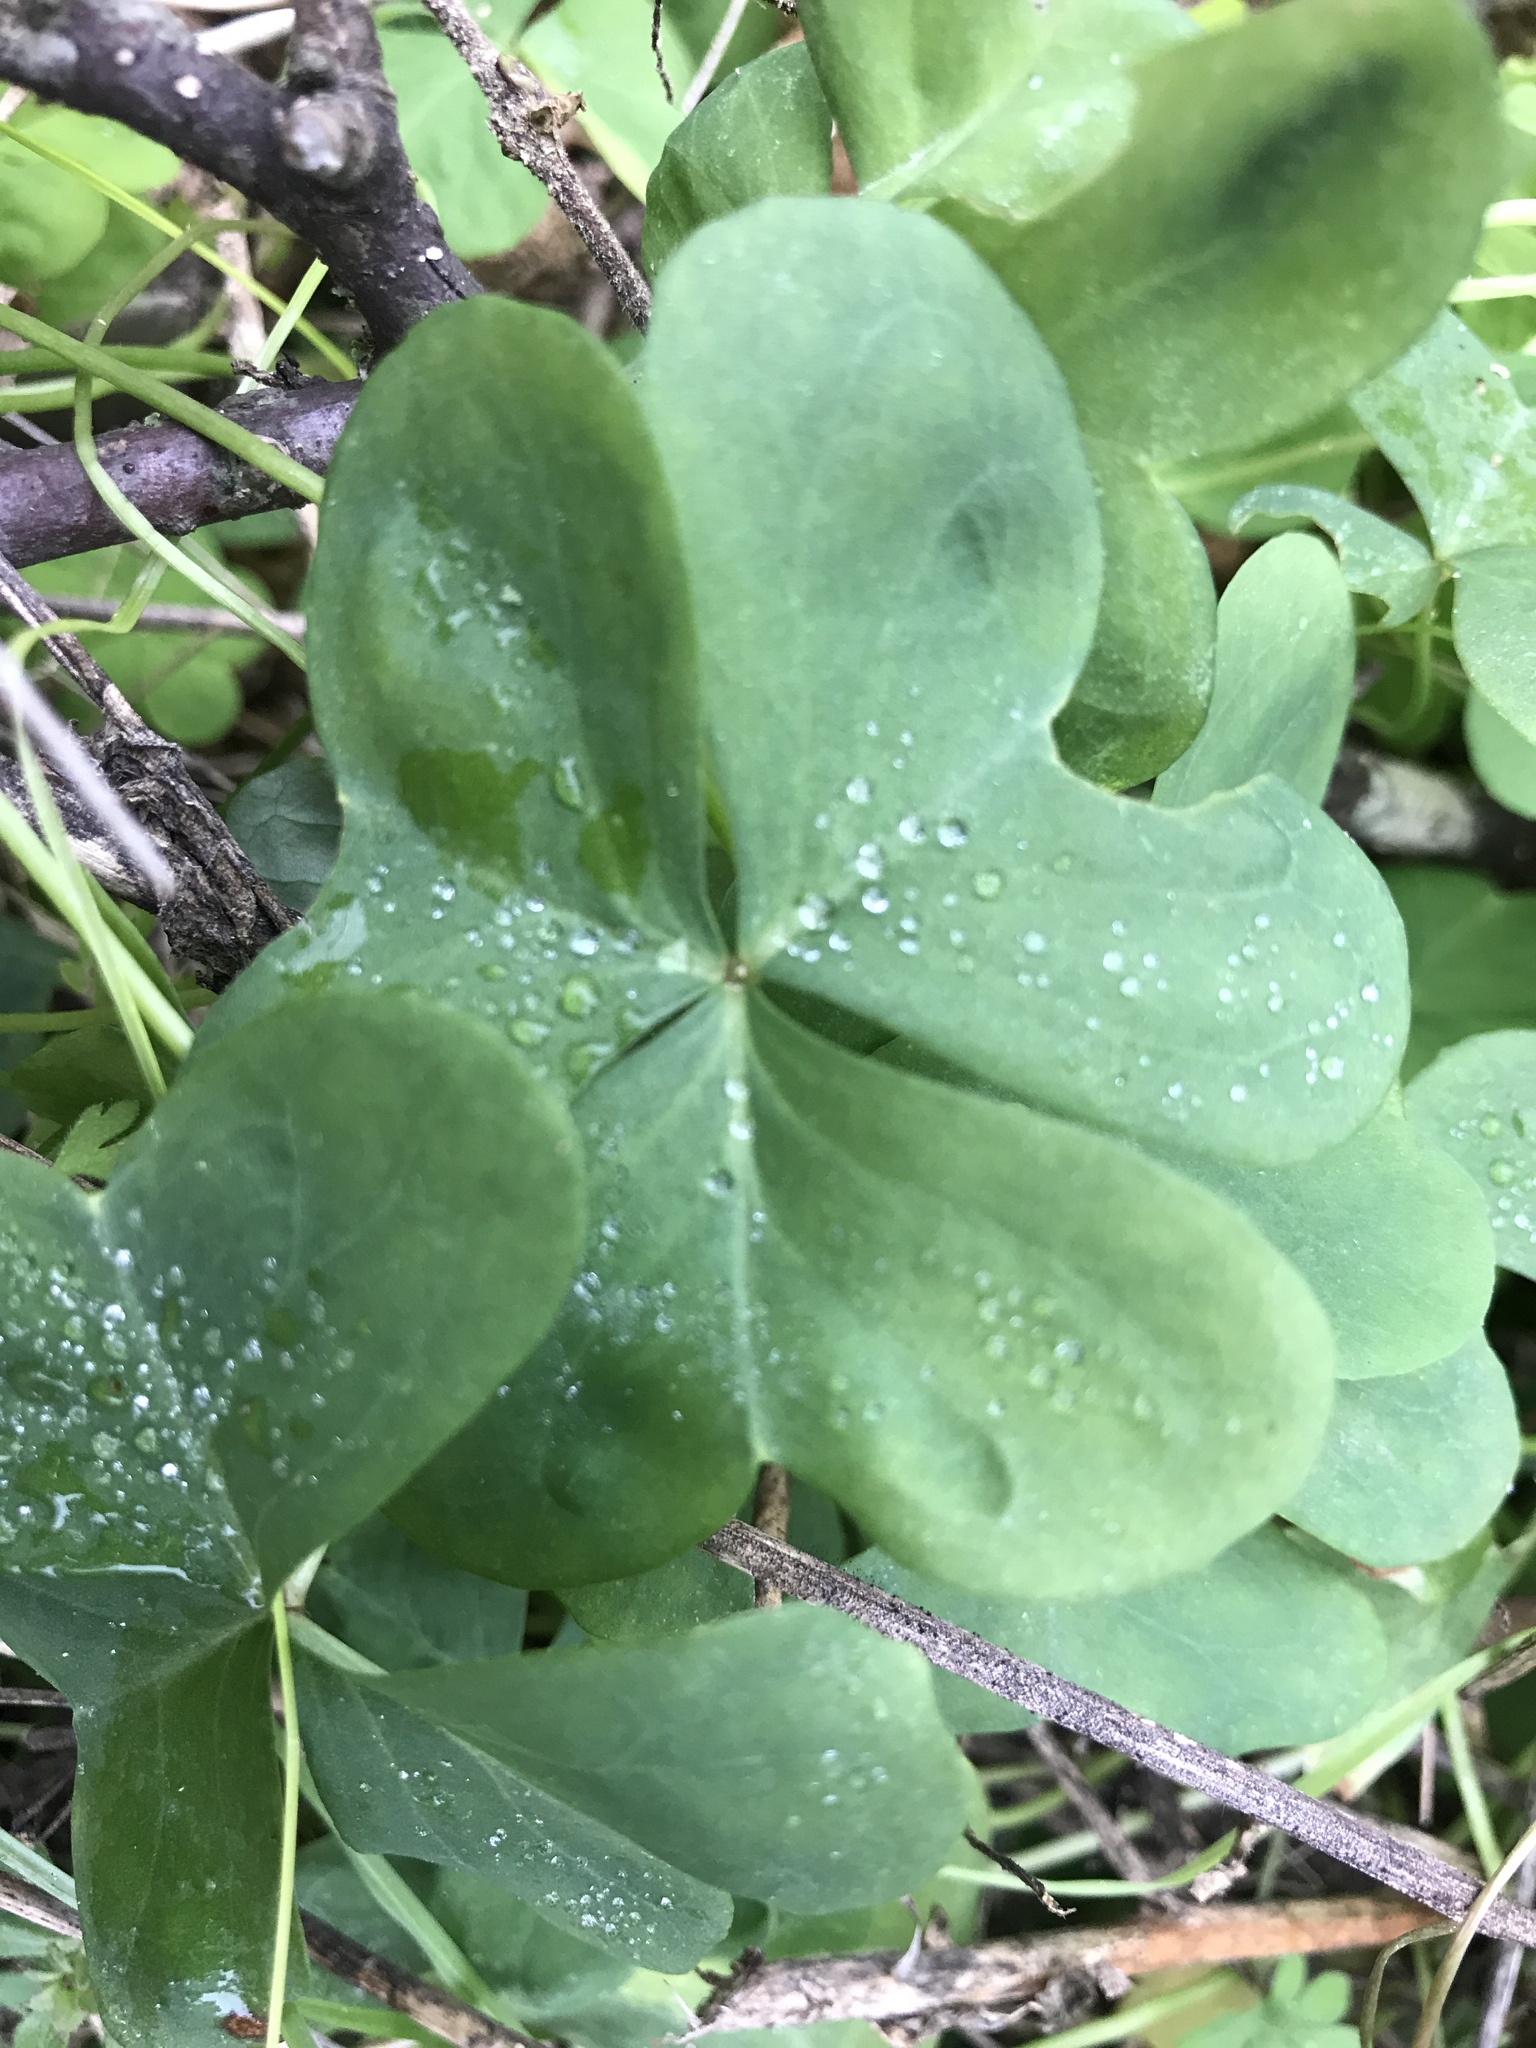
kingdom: Plantae
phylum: Tracheophyta
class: Magnoliopsida
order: Oxalidales
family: Oxalidaceae
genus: Oxalis
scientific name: Oxalis drummondii
